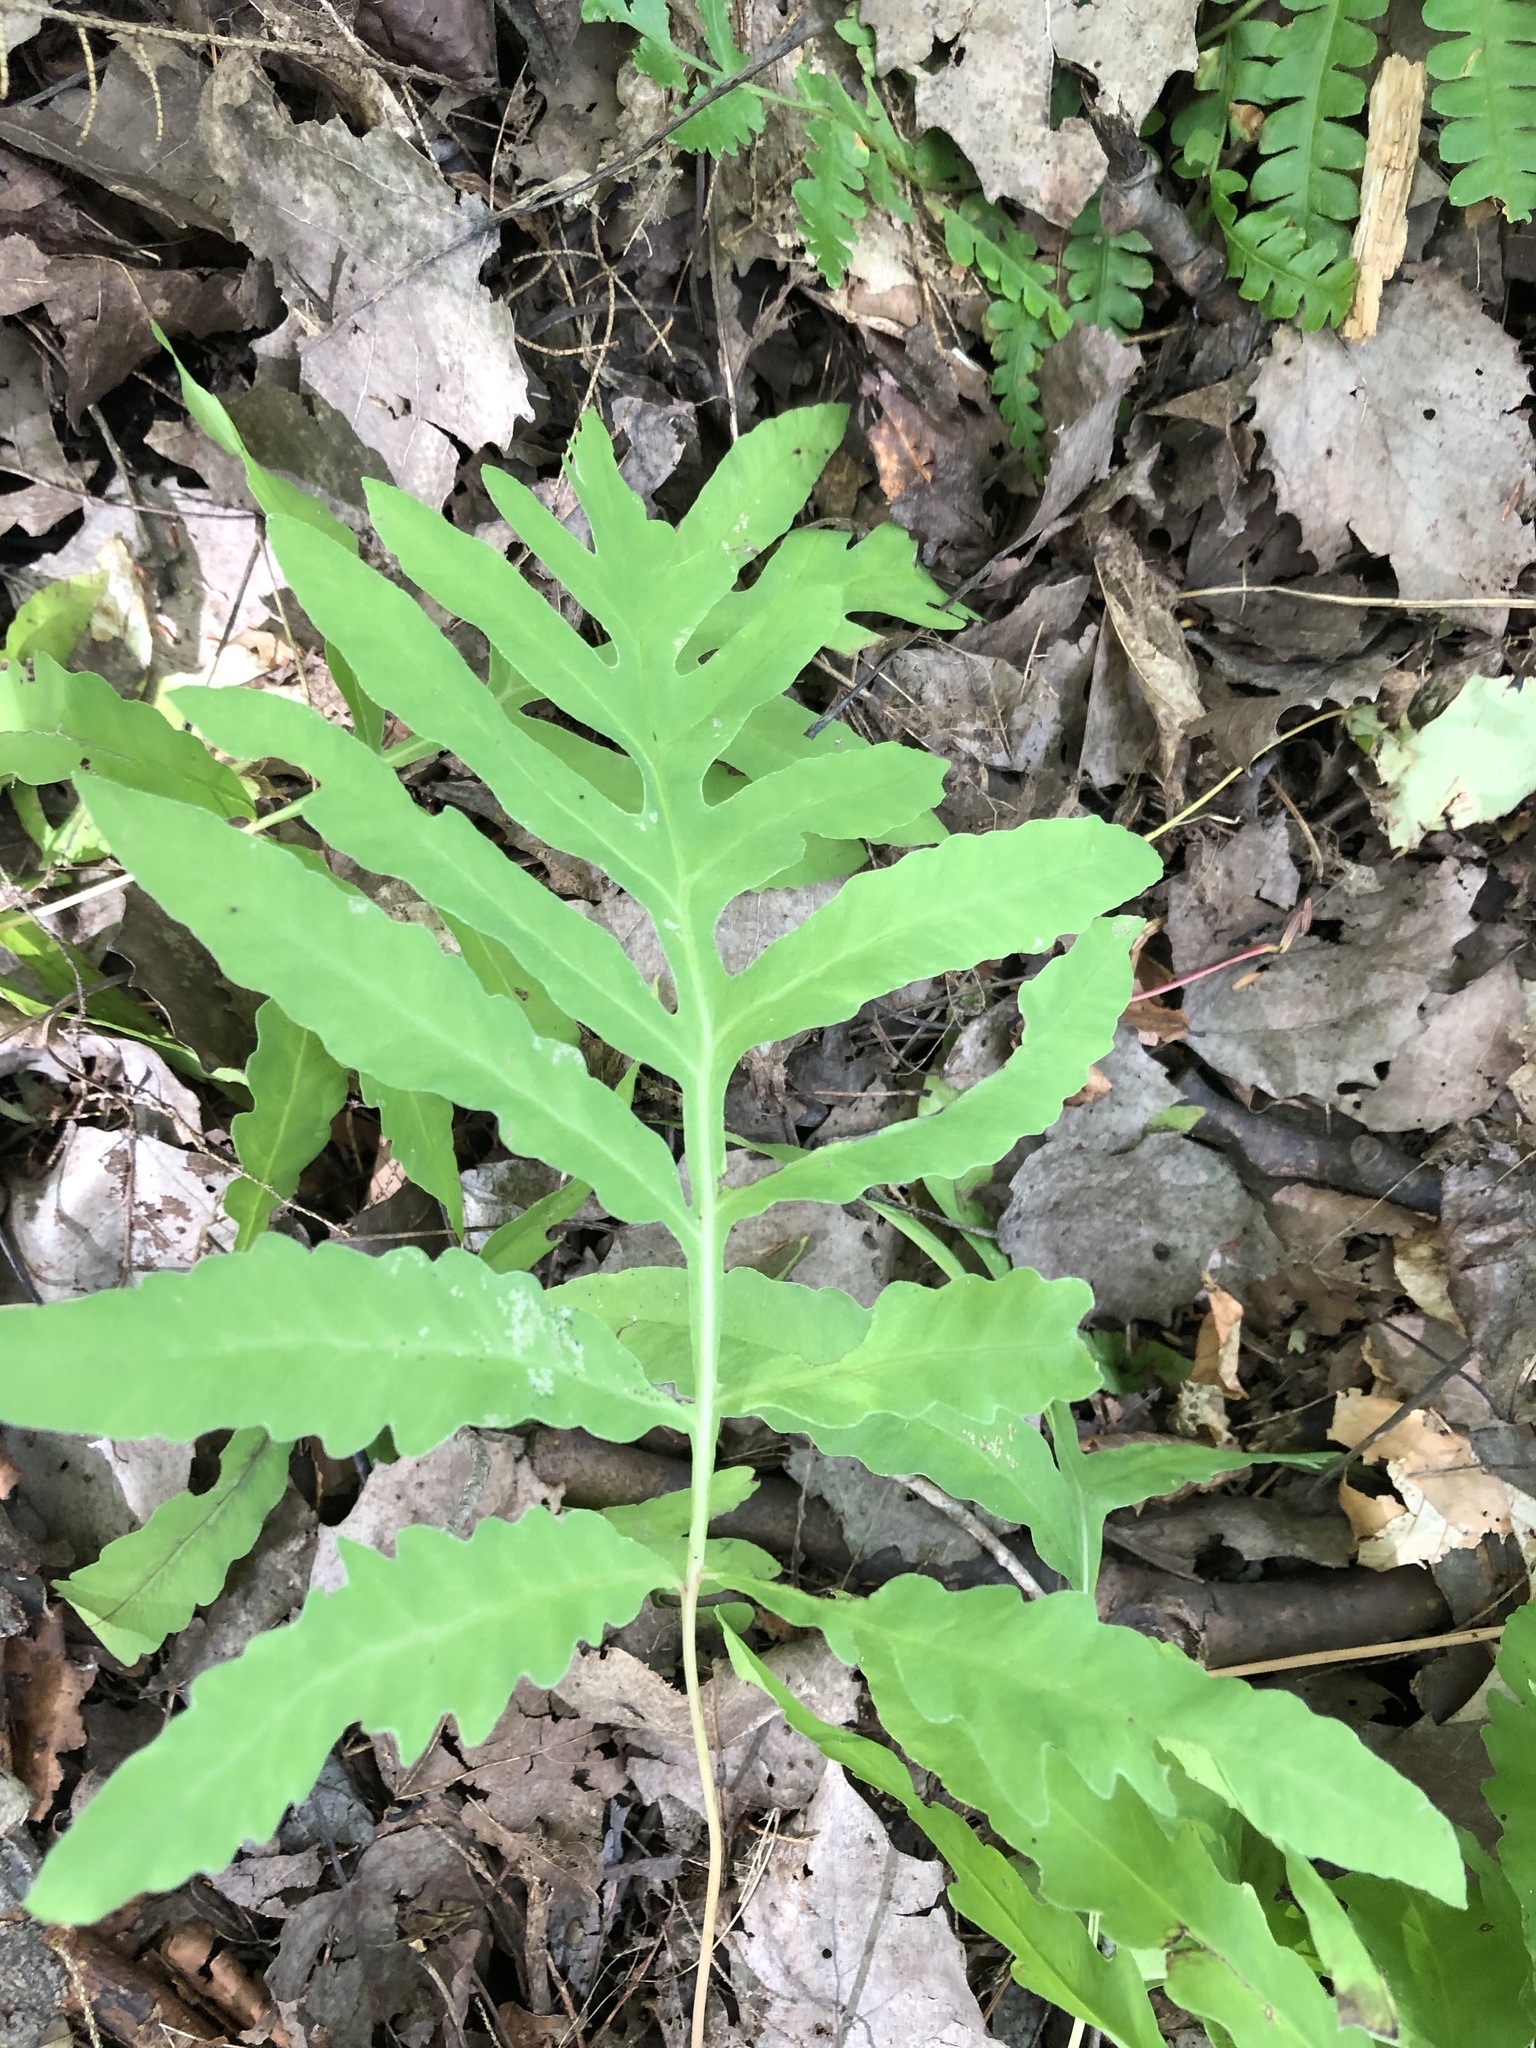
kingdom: Plantae
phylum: Tracheophyta
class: Polypodiopsida
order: Polypodiales
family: Onocleaceae
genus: Onoclea
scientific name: Onoclea sensibilis
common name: Sensitive fern
